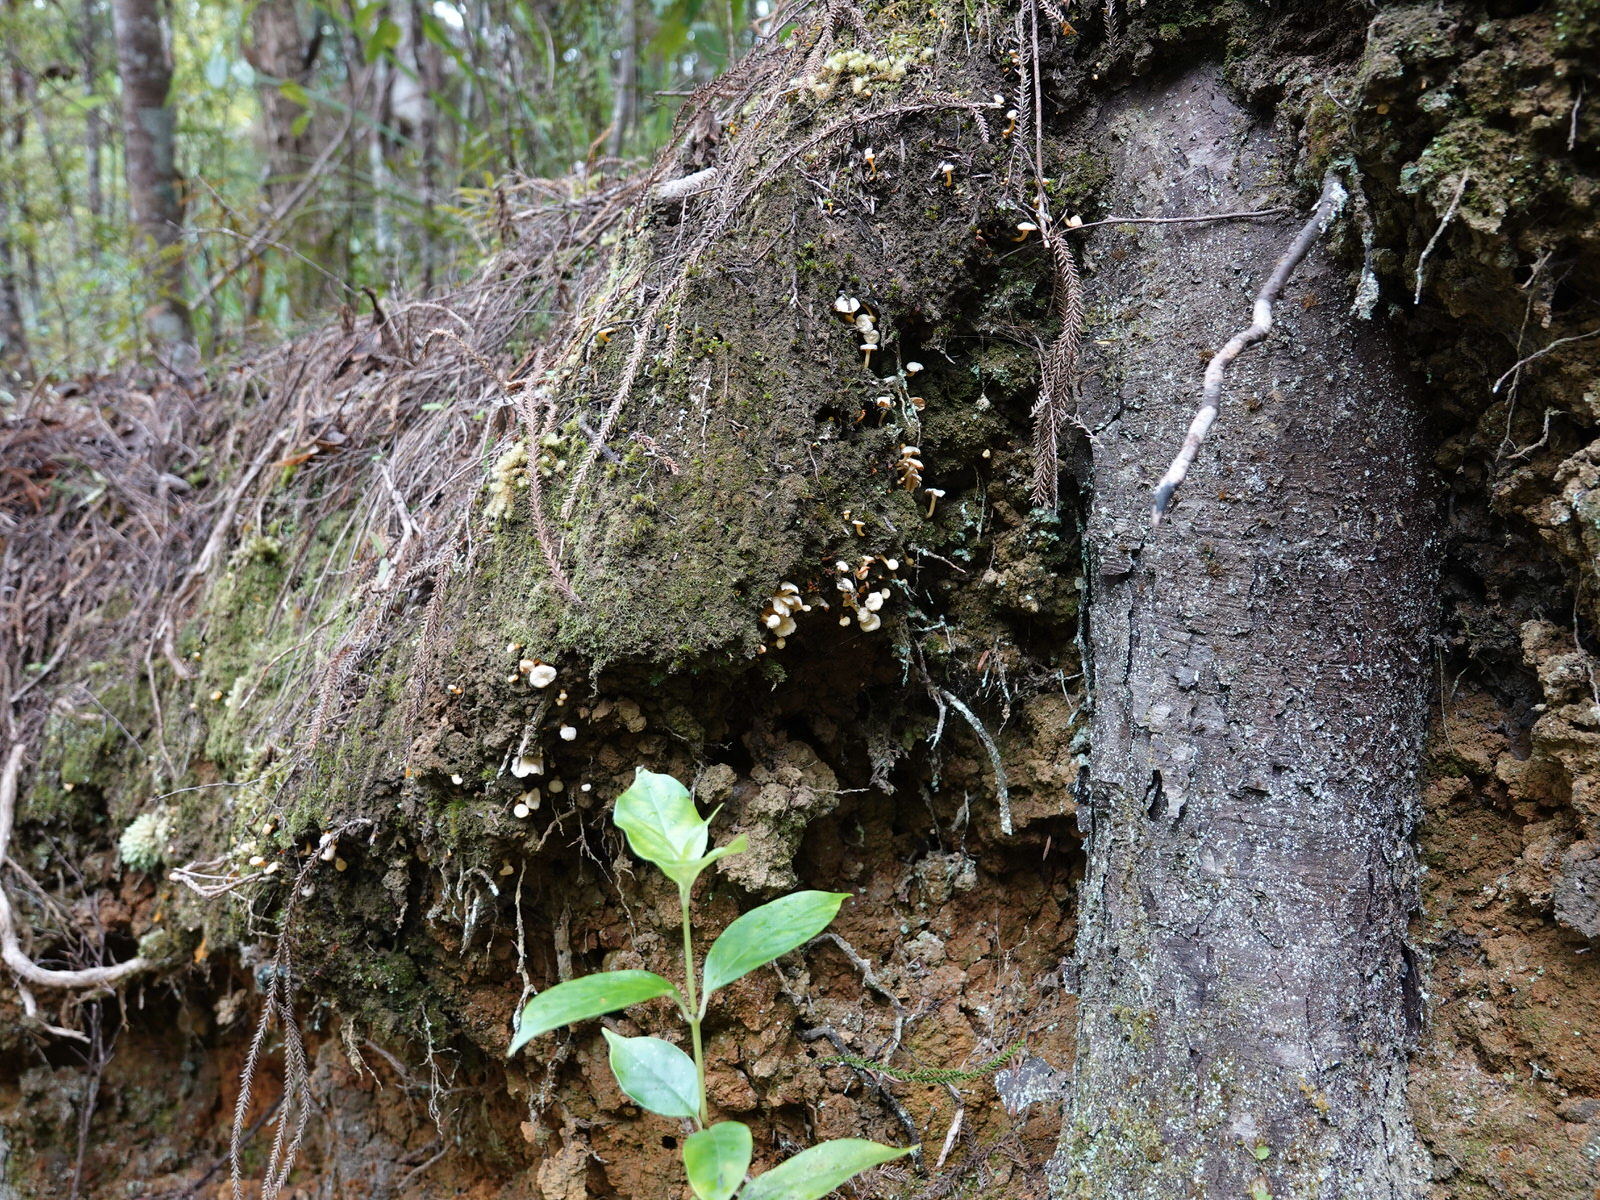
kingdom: Fungi
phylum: Basidiomycota
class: Agaricomycetes
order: Cantharellales
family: Hydnaceae
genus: Cantharellus
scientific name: Cantharellus wellingtonensis
